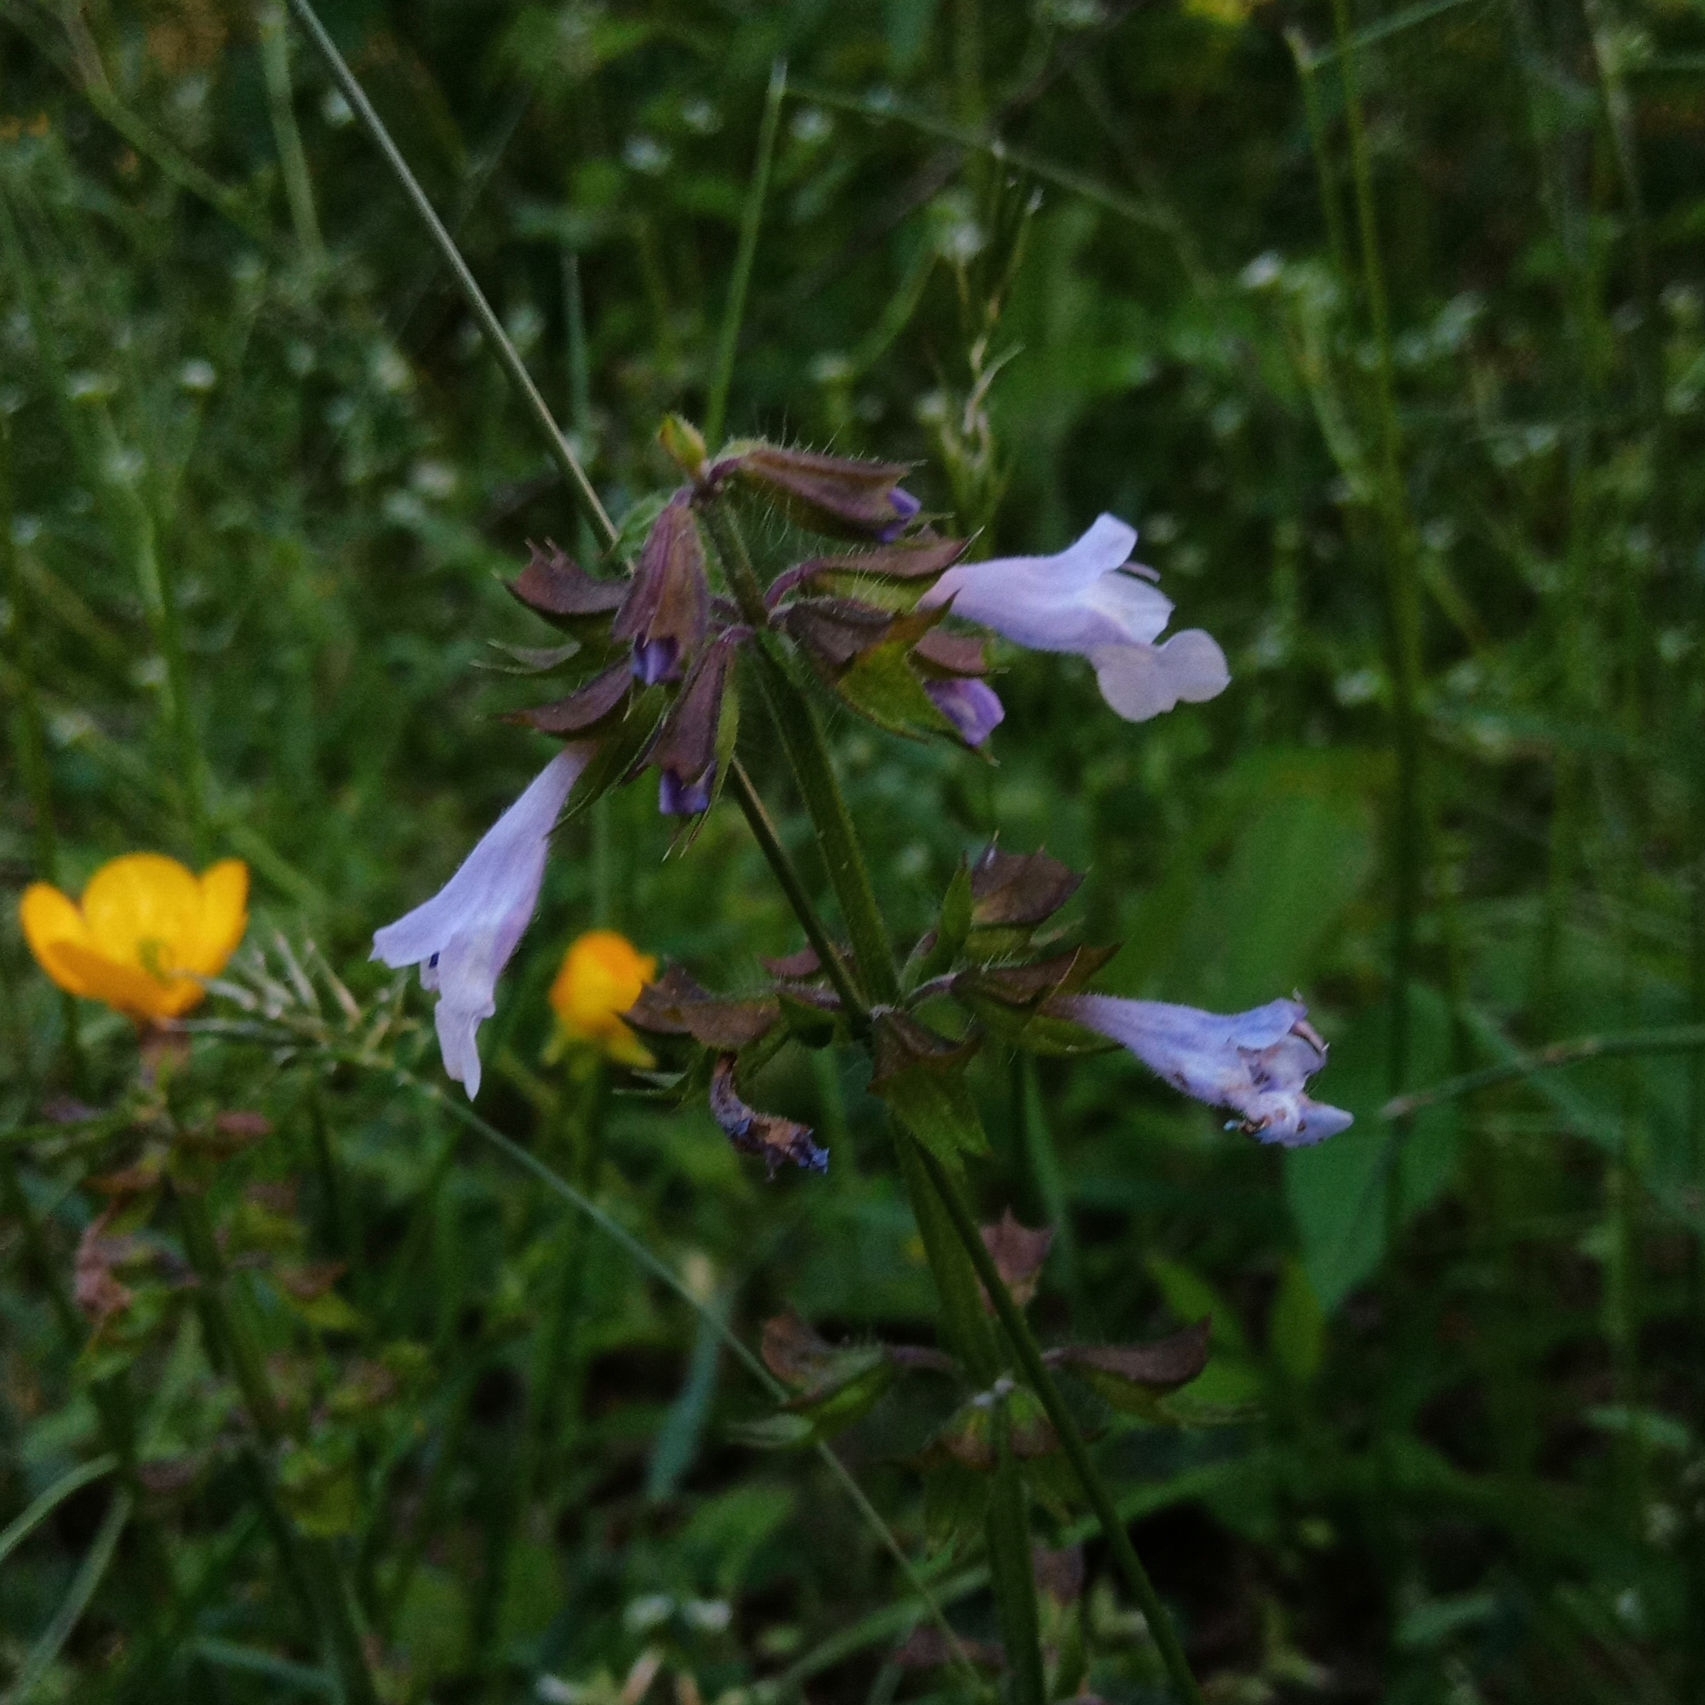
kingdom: Plantae
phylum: Tracheophyta
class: Magnoliopsida
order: Lamiales
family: Lamiaceae
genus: Salvia
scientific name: Salvia lyrata
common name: Cancerweed
